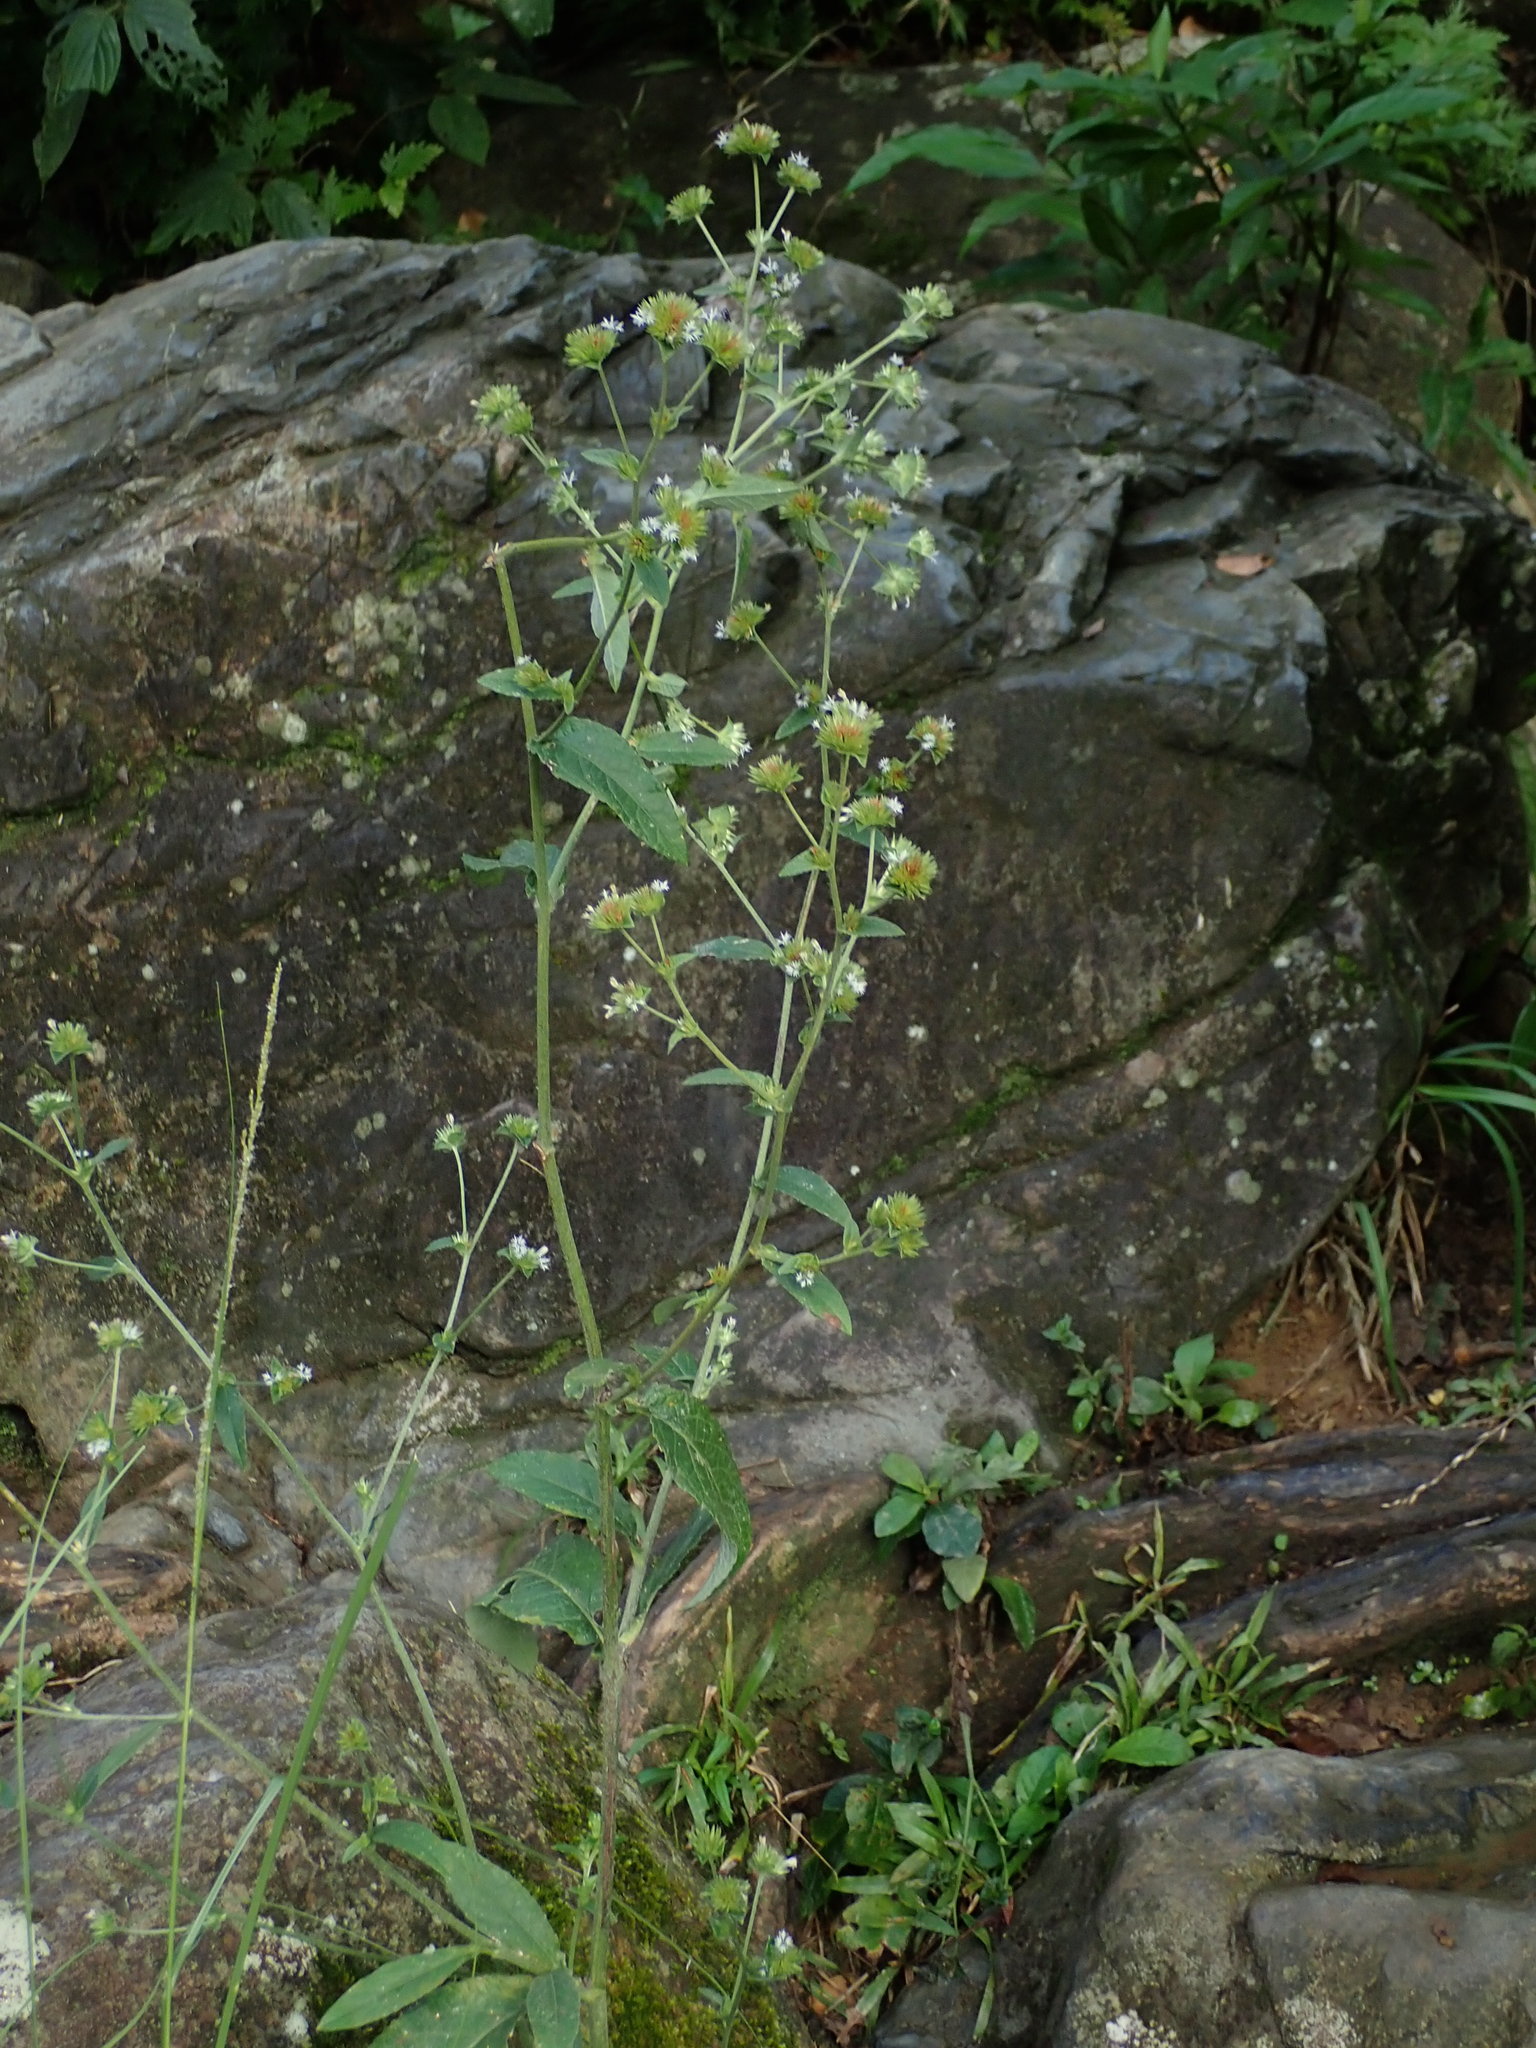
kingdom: Plantae
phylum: Tracheophyta
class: Magnoliopsida
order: Asterales
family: Asteraceae
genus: Elephantopus
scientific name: Elephantopus mollis
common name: Soft elephantsfoot
